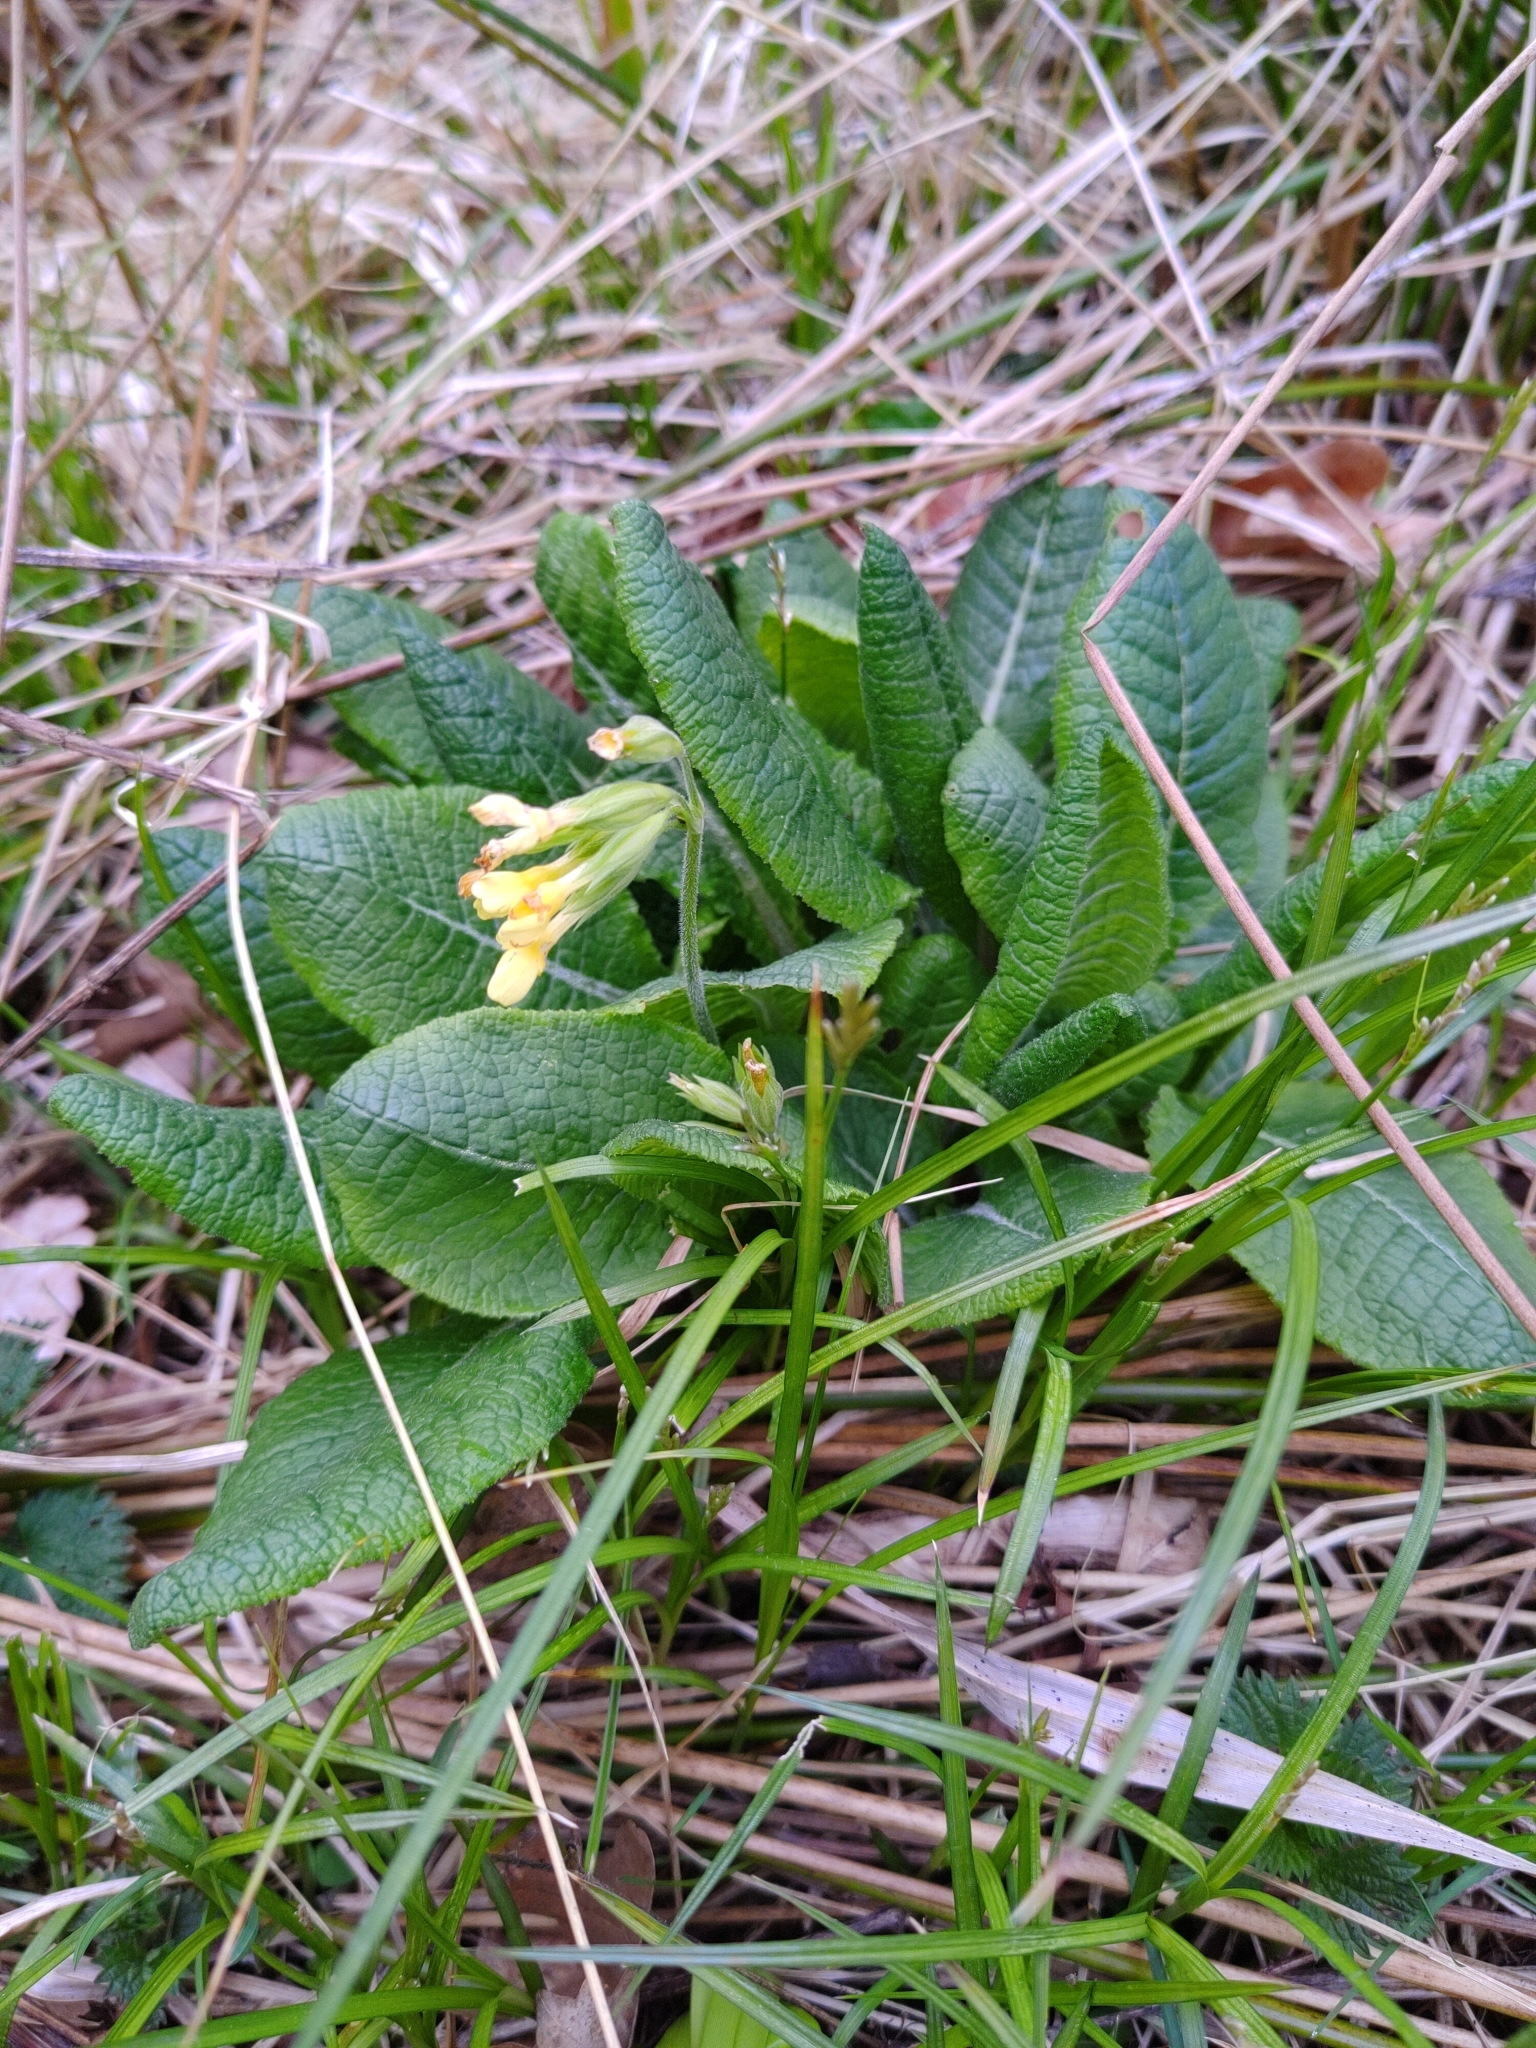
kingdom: Plantae
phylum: Tracheophyta
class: Magnoliopsida
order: Ericales
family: Primulaceae
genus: Primula
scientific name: Primula elatior
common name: Oxlip
